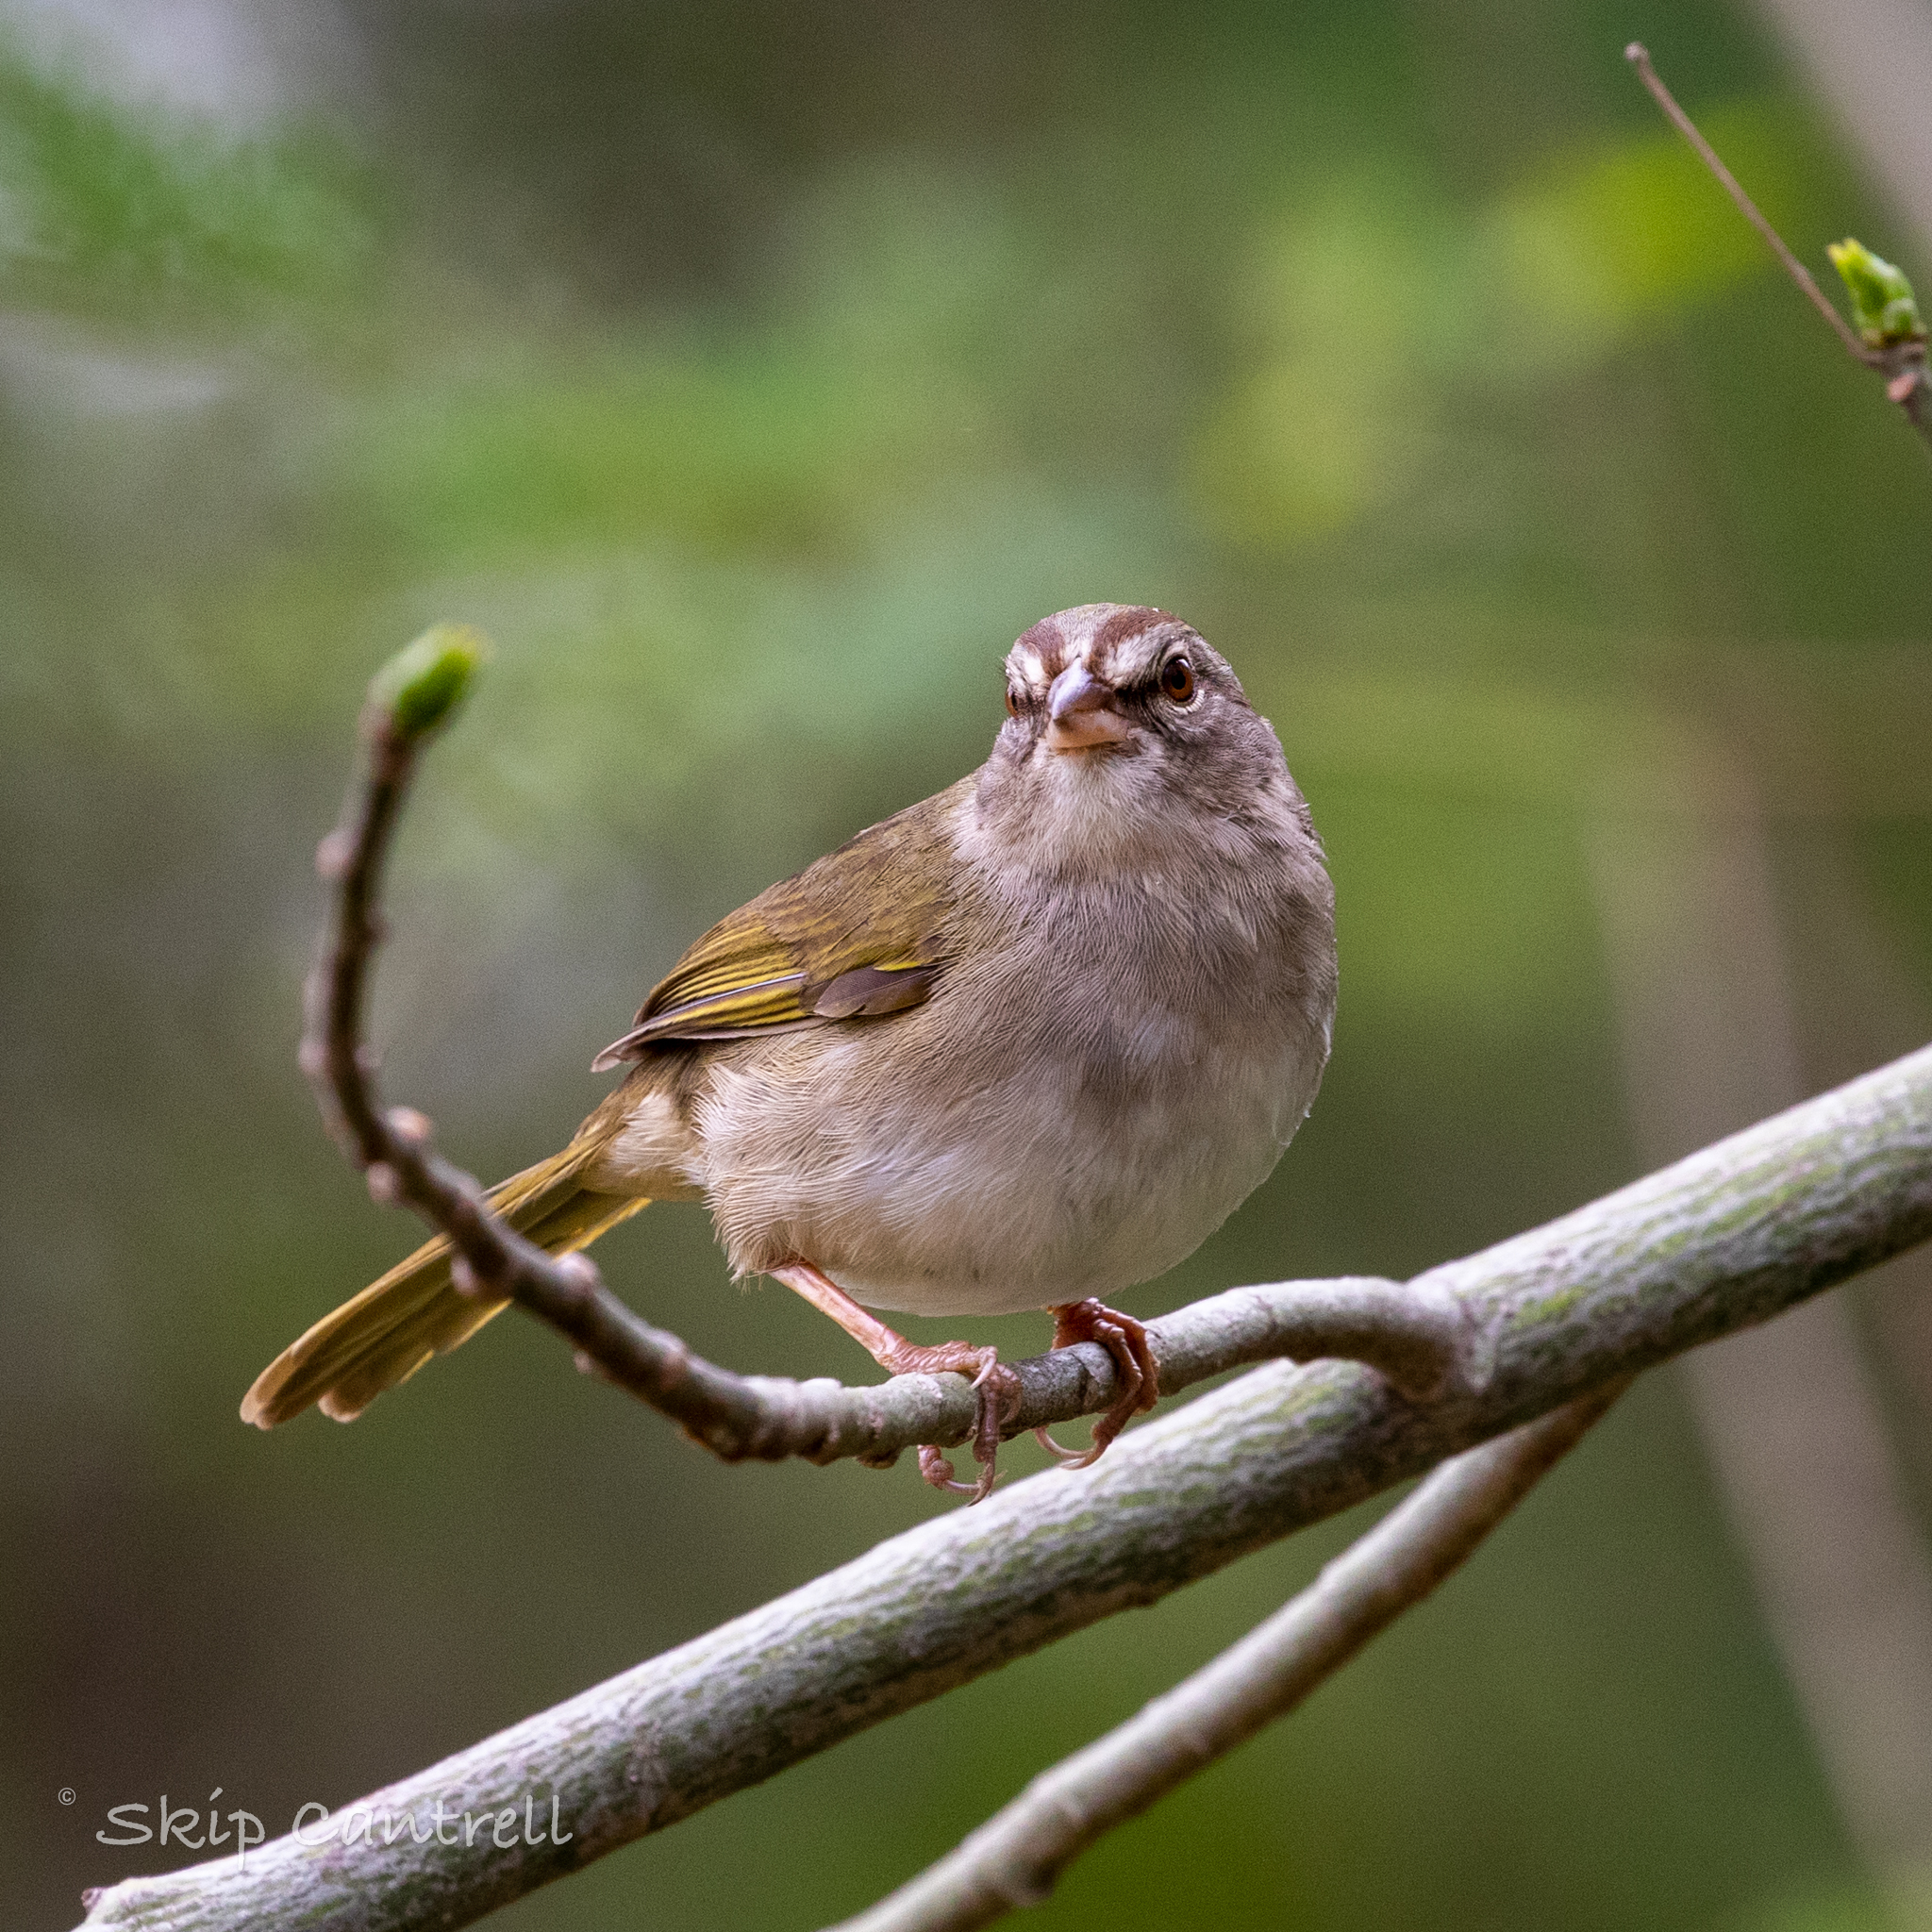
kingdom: Animalia
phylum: Chordata
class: Aves
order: Passeriformes
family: Passerellidae
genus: Arremonops
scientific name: Arremonops rufivirgatus
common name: Olive sparrow
